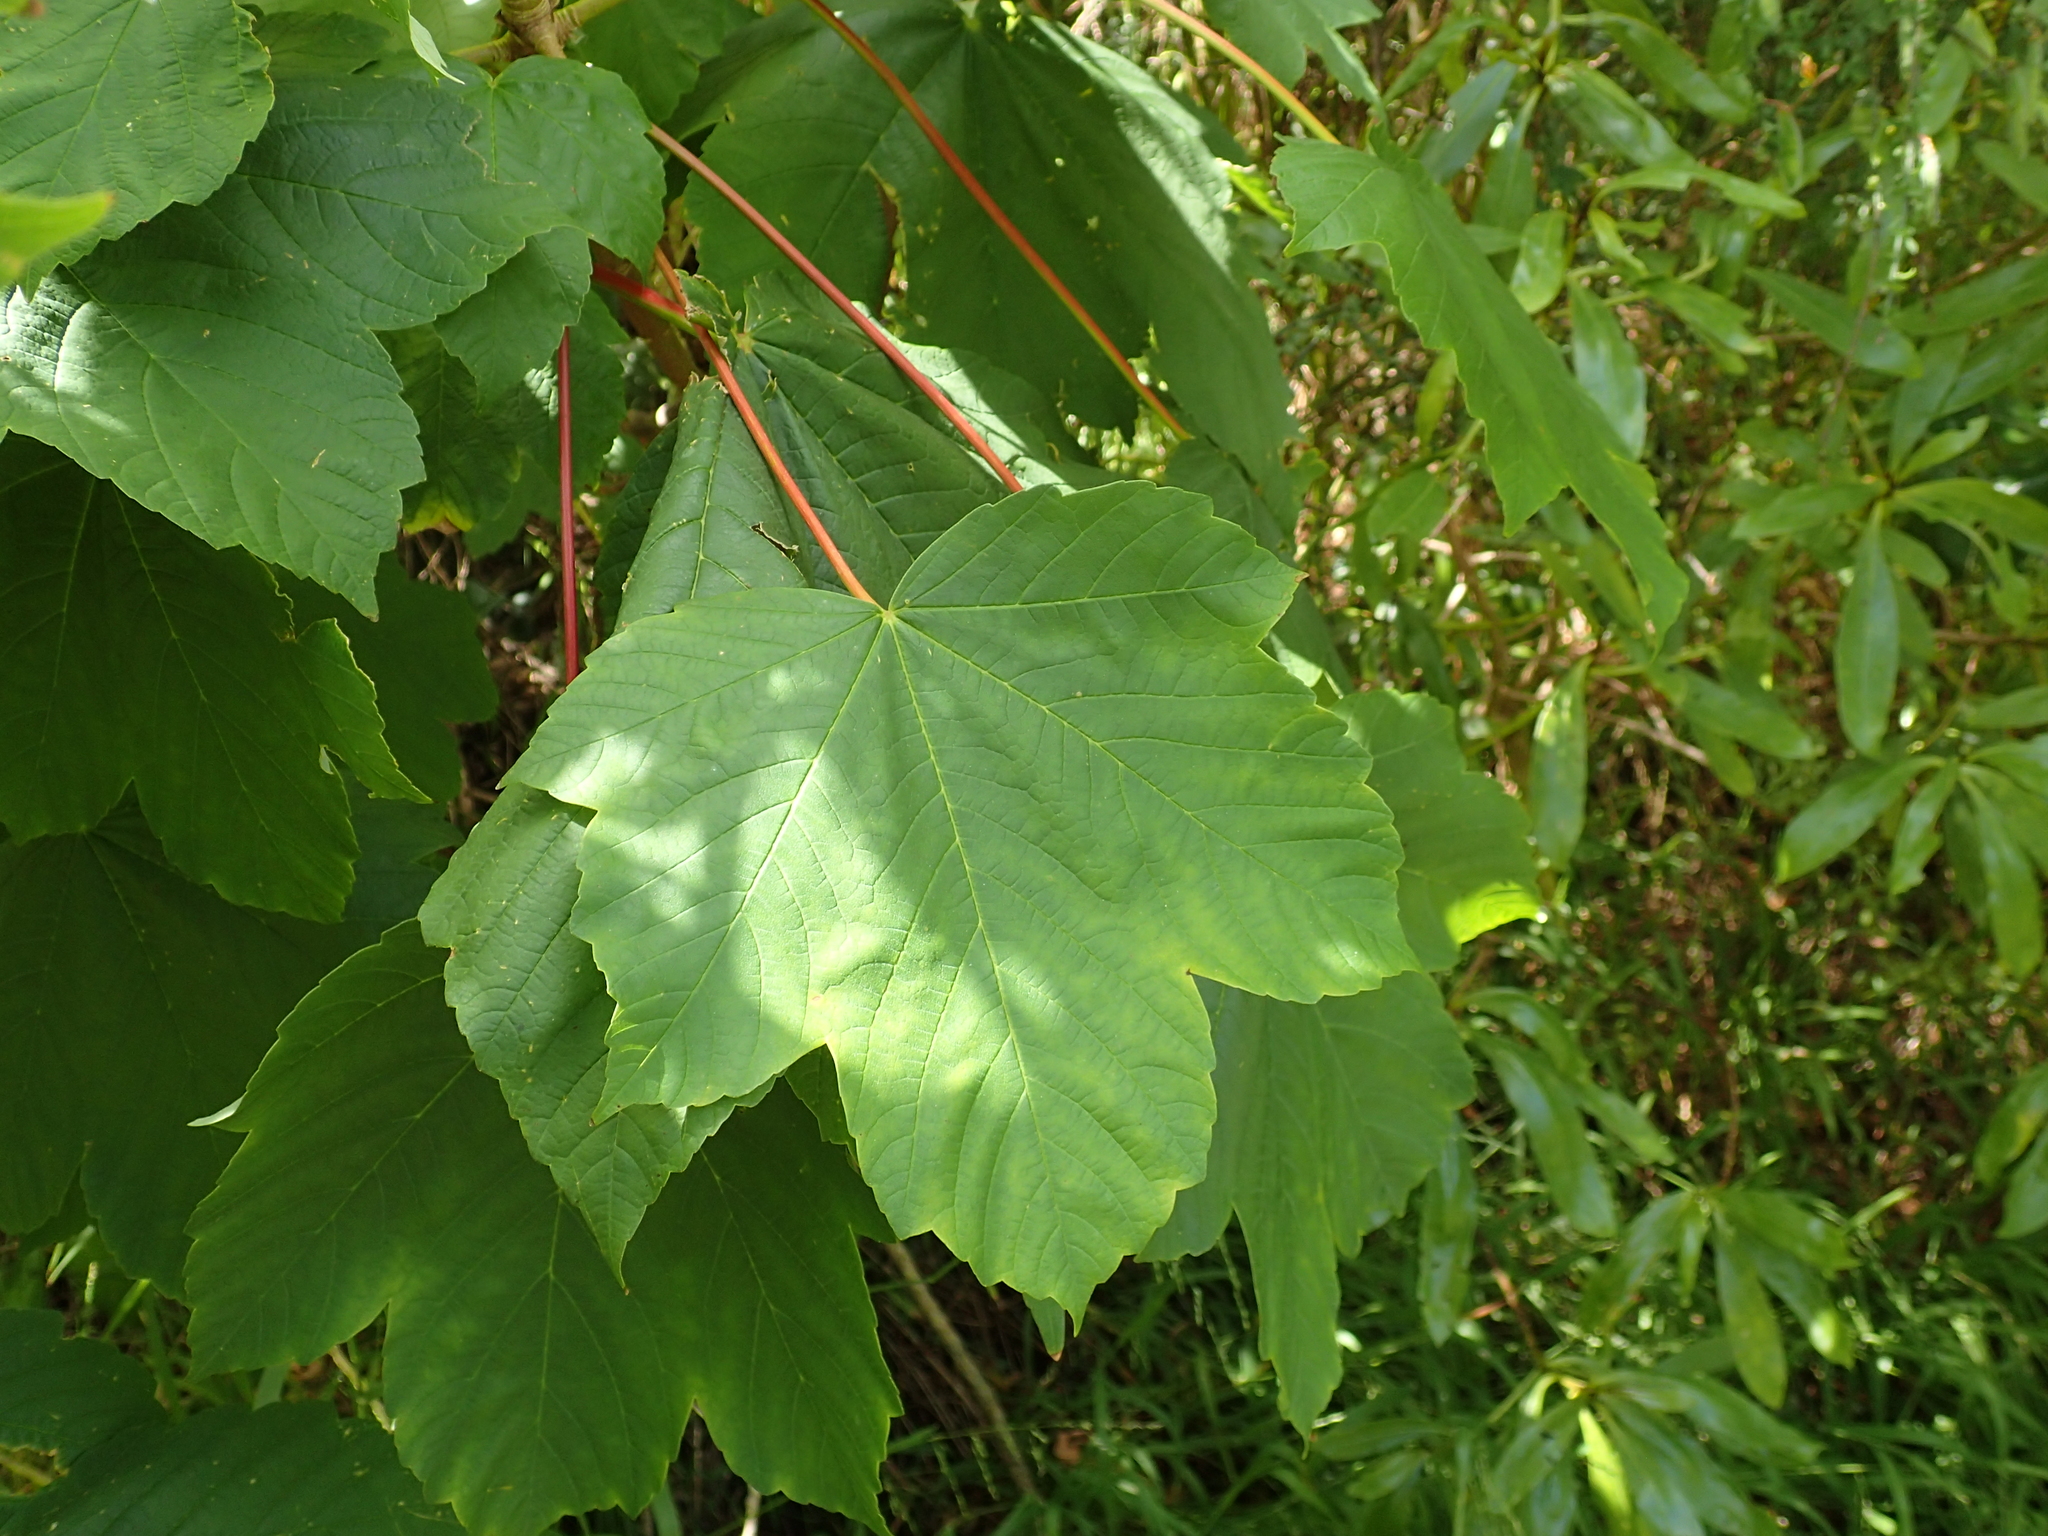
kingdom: Plantae
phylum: Tracheophyta
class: Magnoliopsida
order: Sapindales
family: Sapindaceae
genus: Acer
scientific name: Acer pseudoplatanus
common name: Sycamore
